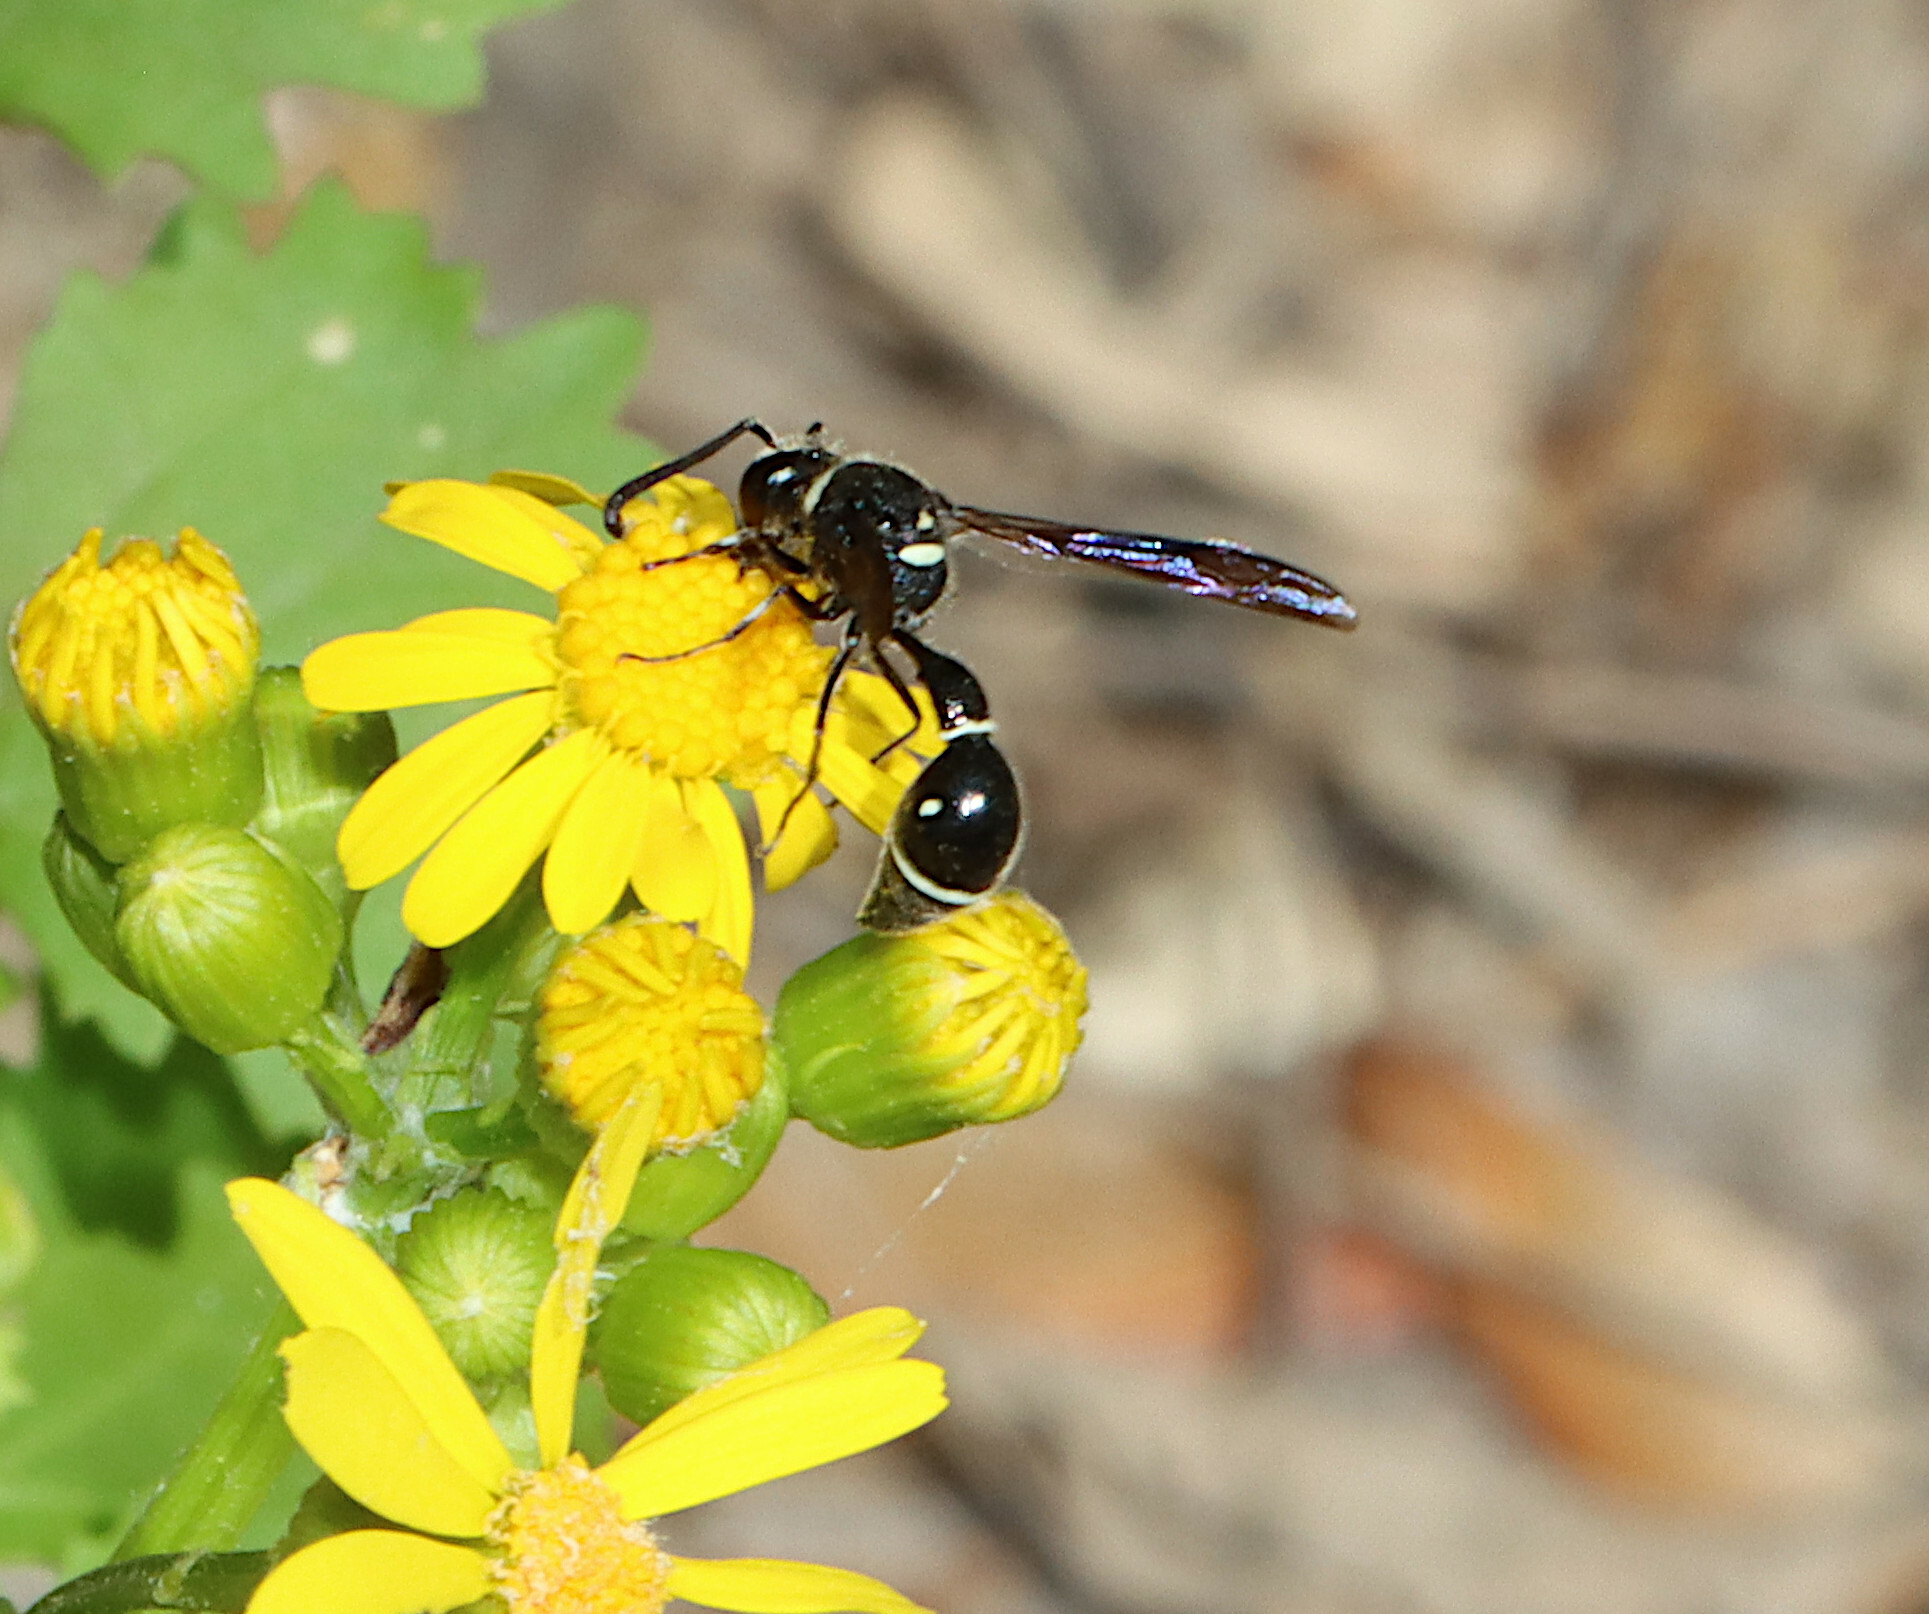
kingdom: Animalia
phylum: Arthropoda
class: Insecta
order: Hymenoptera
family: Vespidae
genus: Eumenes
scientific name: Eumenes fraternus
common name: Fraternal potter wasp
